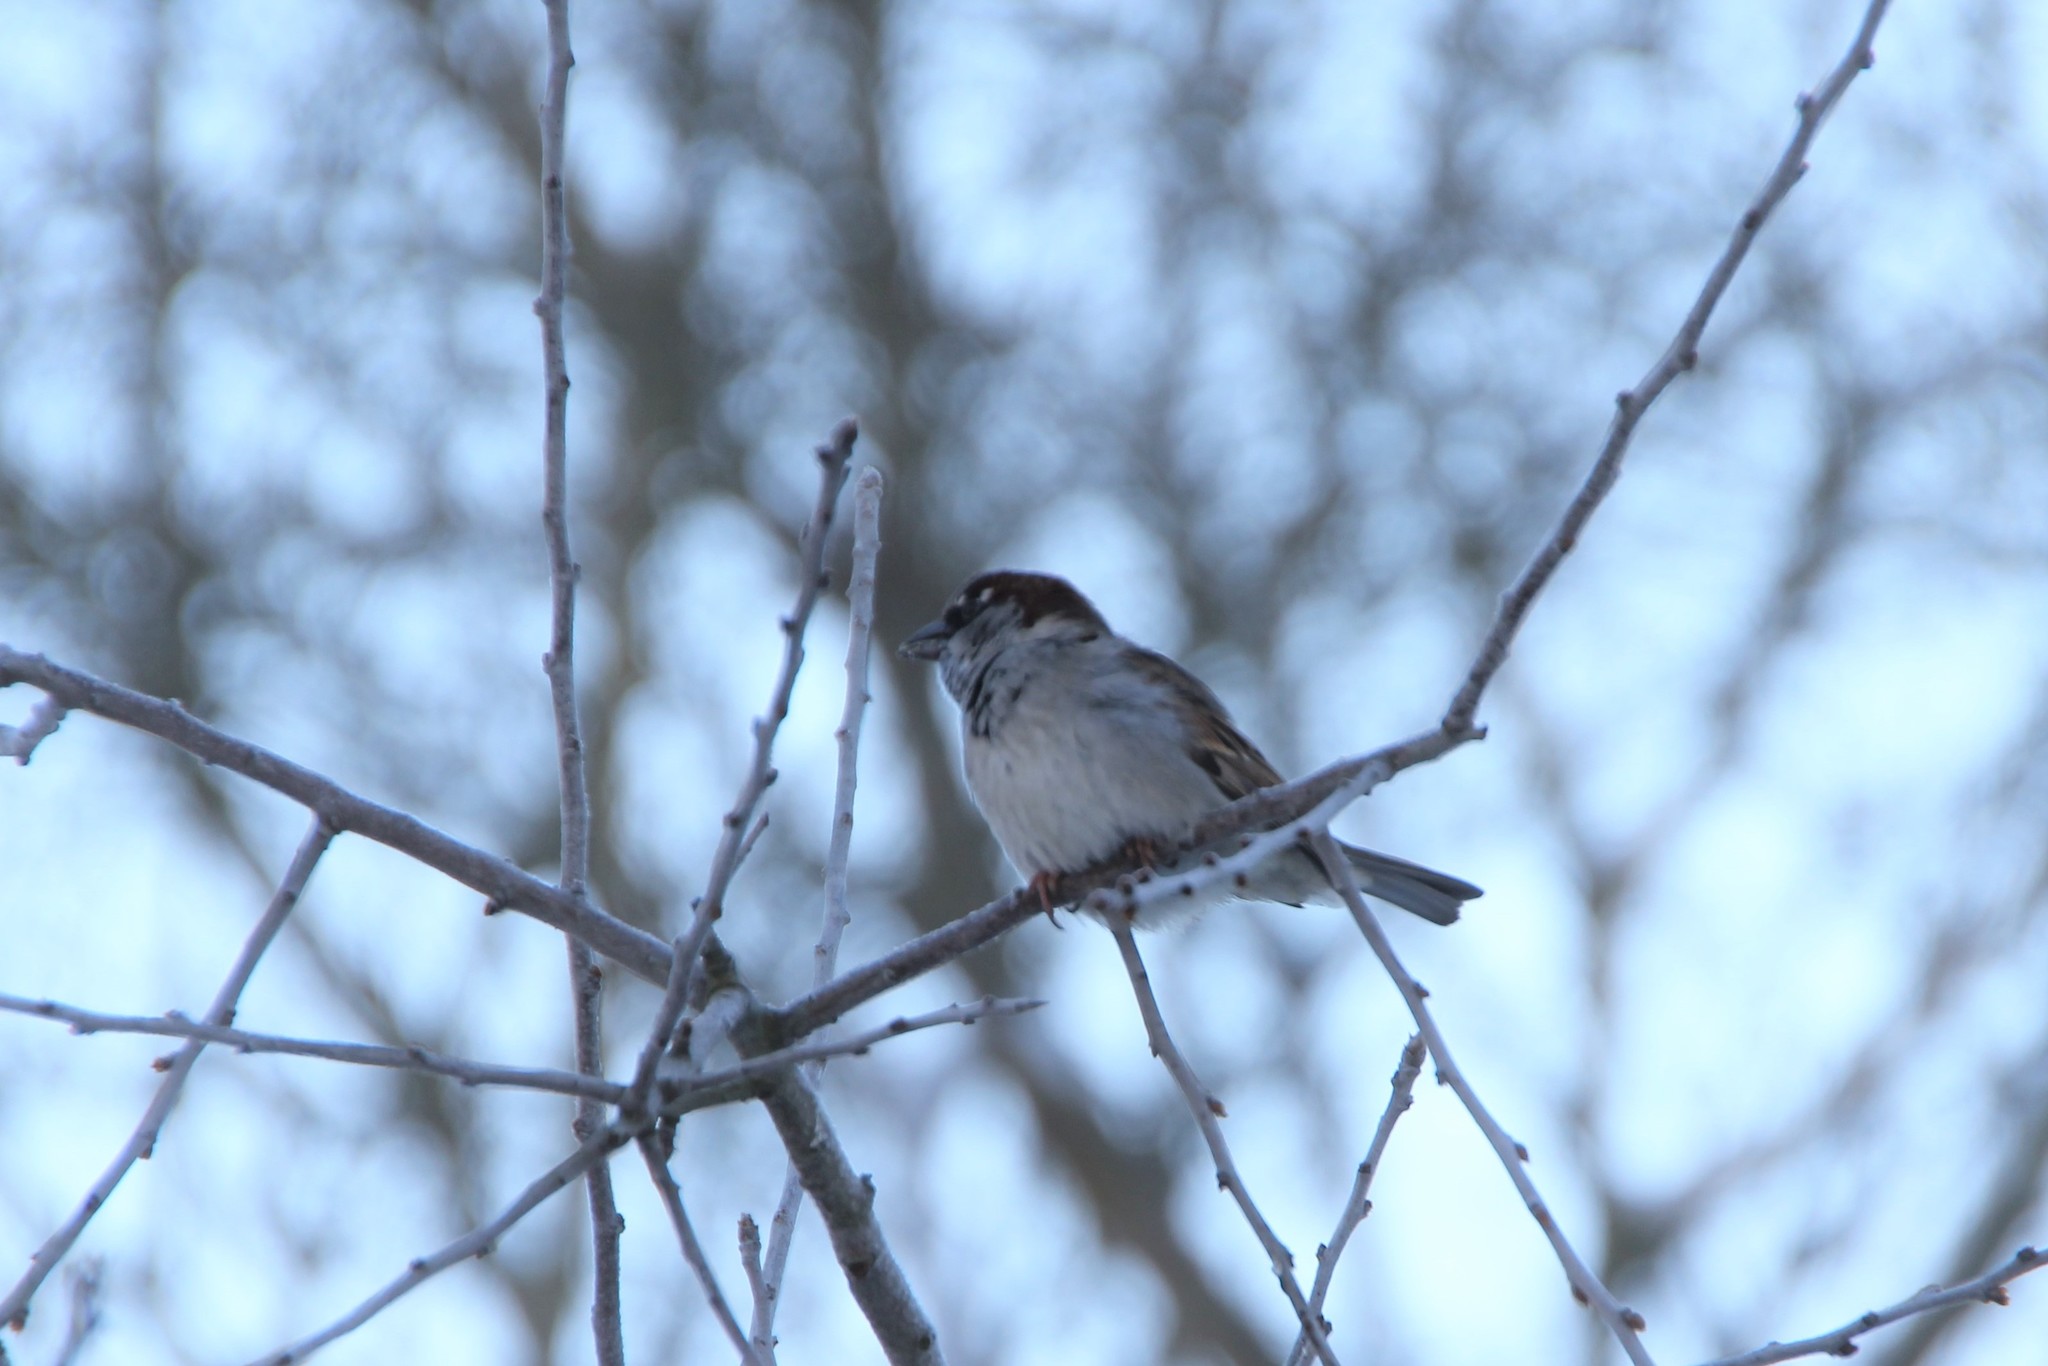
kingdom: Animalia
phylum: Chordata
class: Aves
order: Passeriformes
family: Passeridae
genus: Passer
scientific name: Passer montanus
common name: Eurasian tree sparrow
